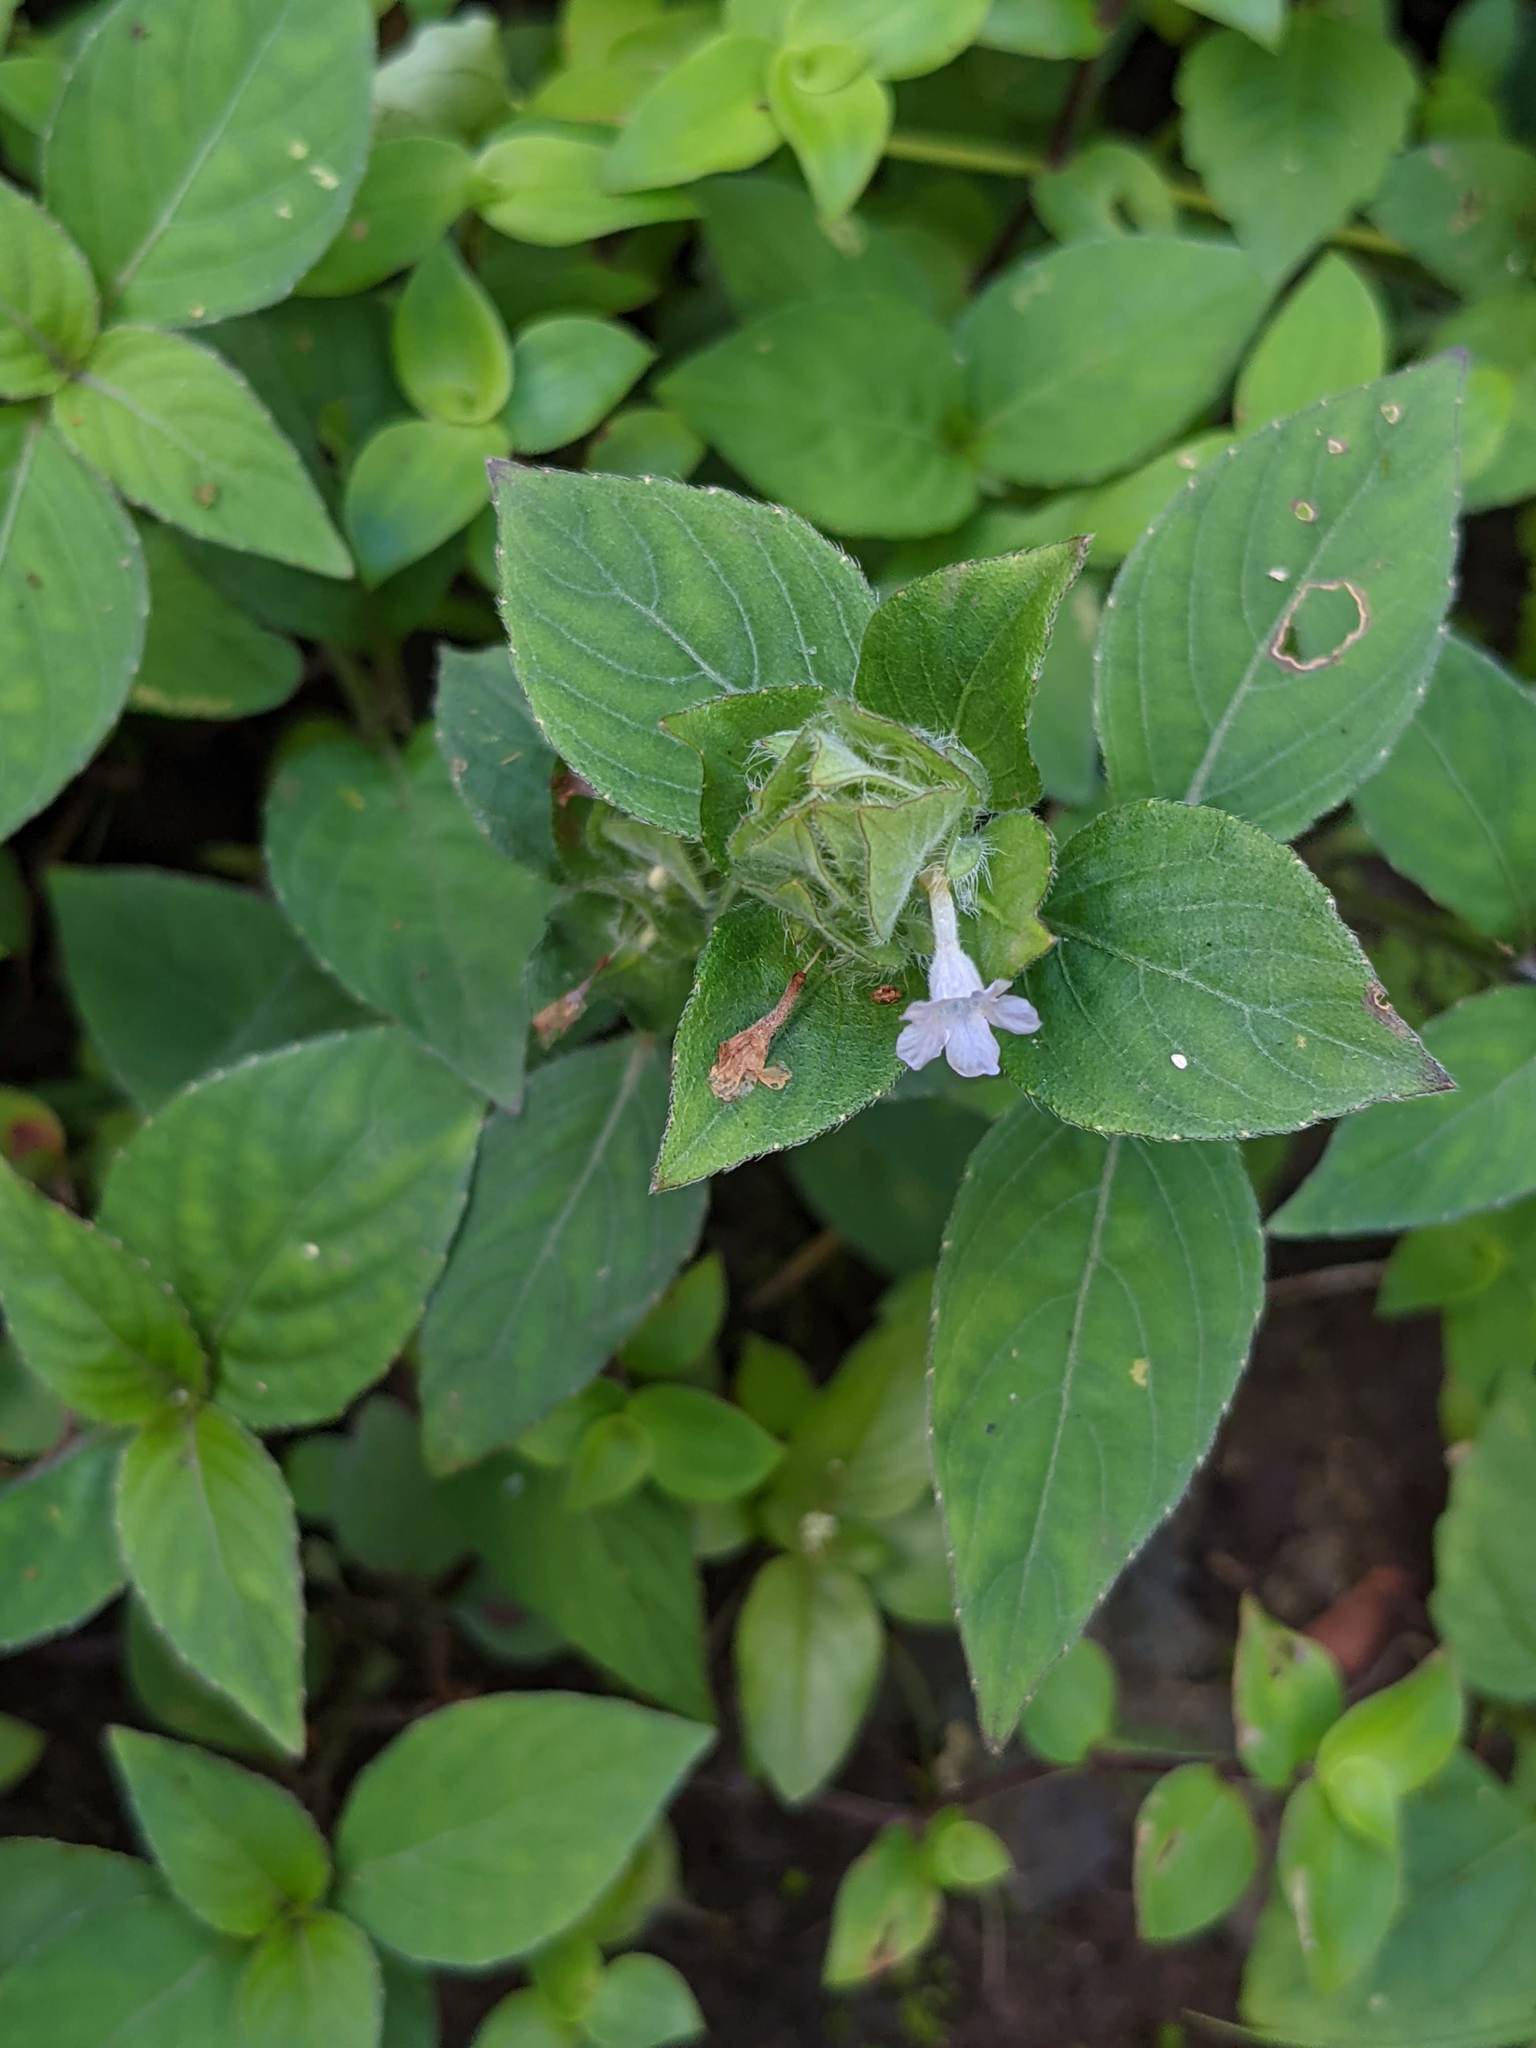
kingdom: Plantae
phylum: Tracheophyta
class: Magnoliopsida
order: Lamiales
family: Acanthaceae
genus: Ruellia
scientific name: Ruellia blechum
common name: Browne's blechum
